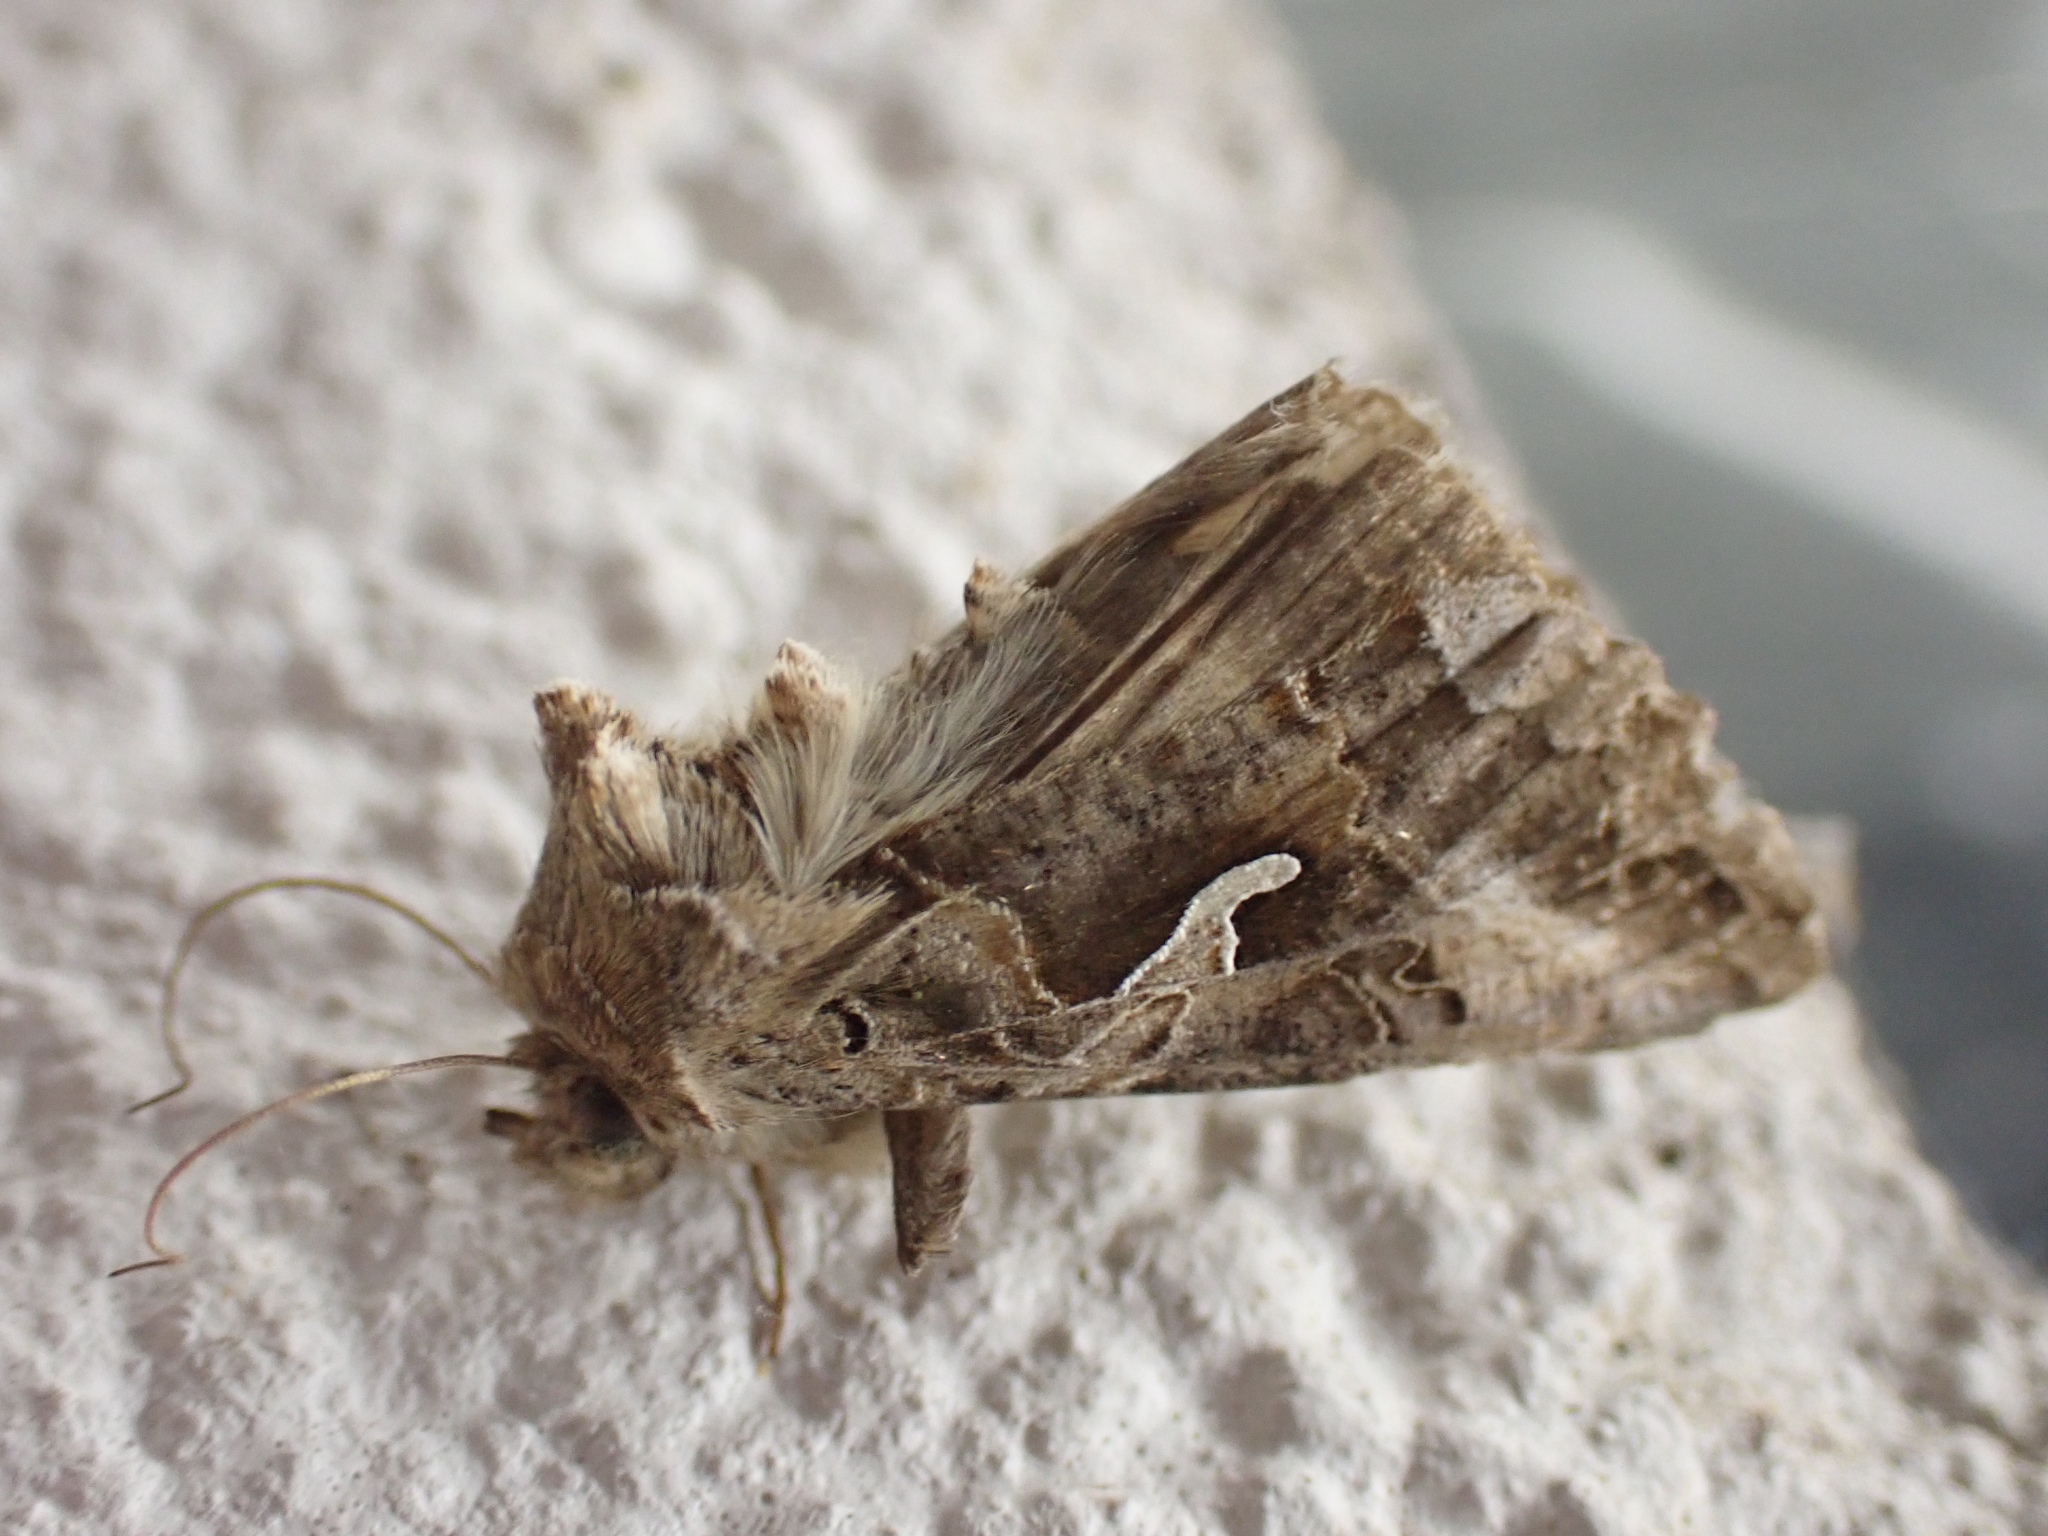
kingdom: Animalia
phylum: Arthropoda
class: Insecta
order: Lepidoptera
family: Noctuidae
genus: Autographa
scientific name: Autographa gamma
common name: Silver y
